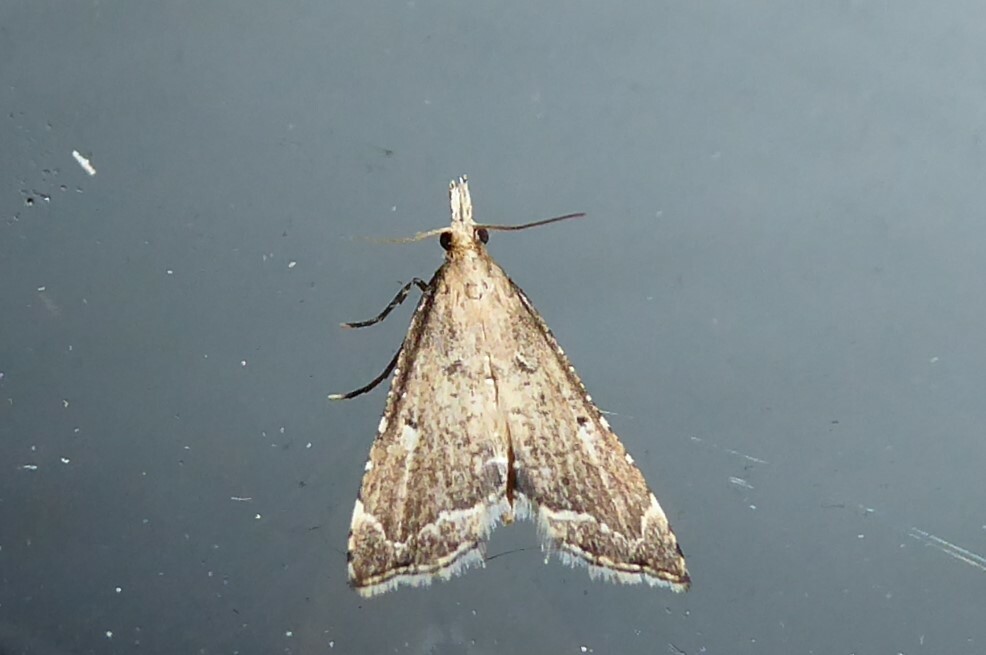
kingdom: Animalia
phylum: Arthropoda
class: Insecta
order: Lepidoptera
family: Crambidae
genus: Diplopseustis
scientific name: Diplopseustis perieresalis
